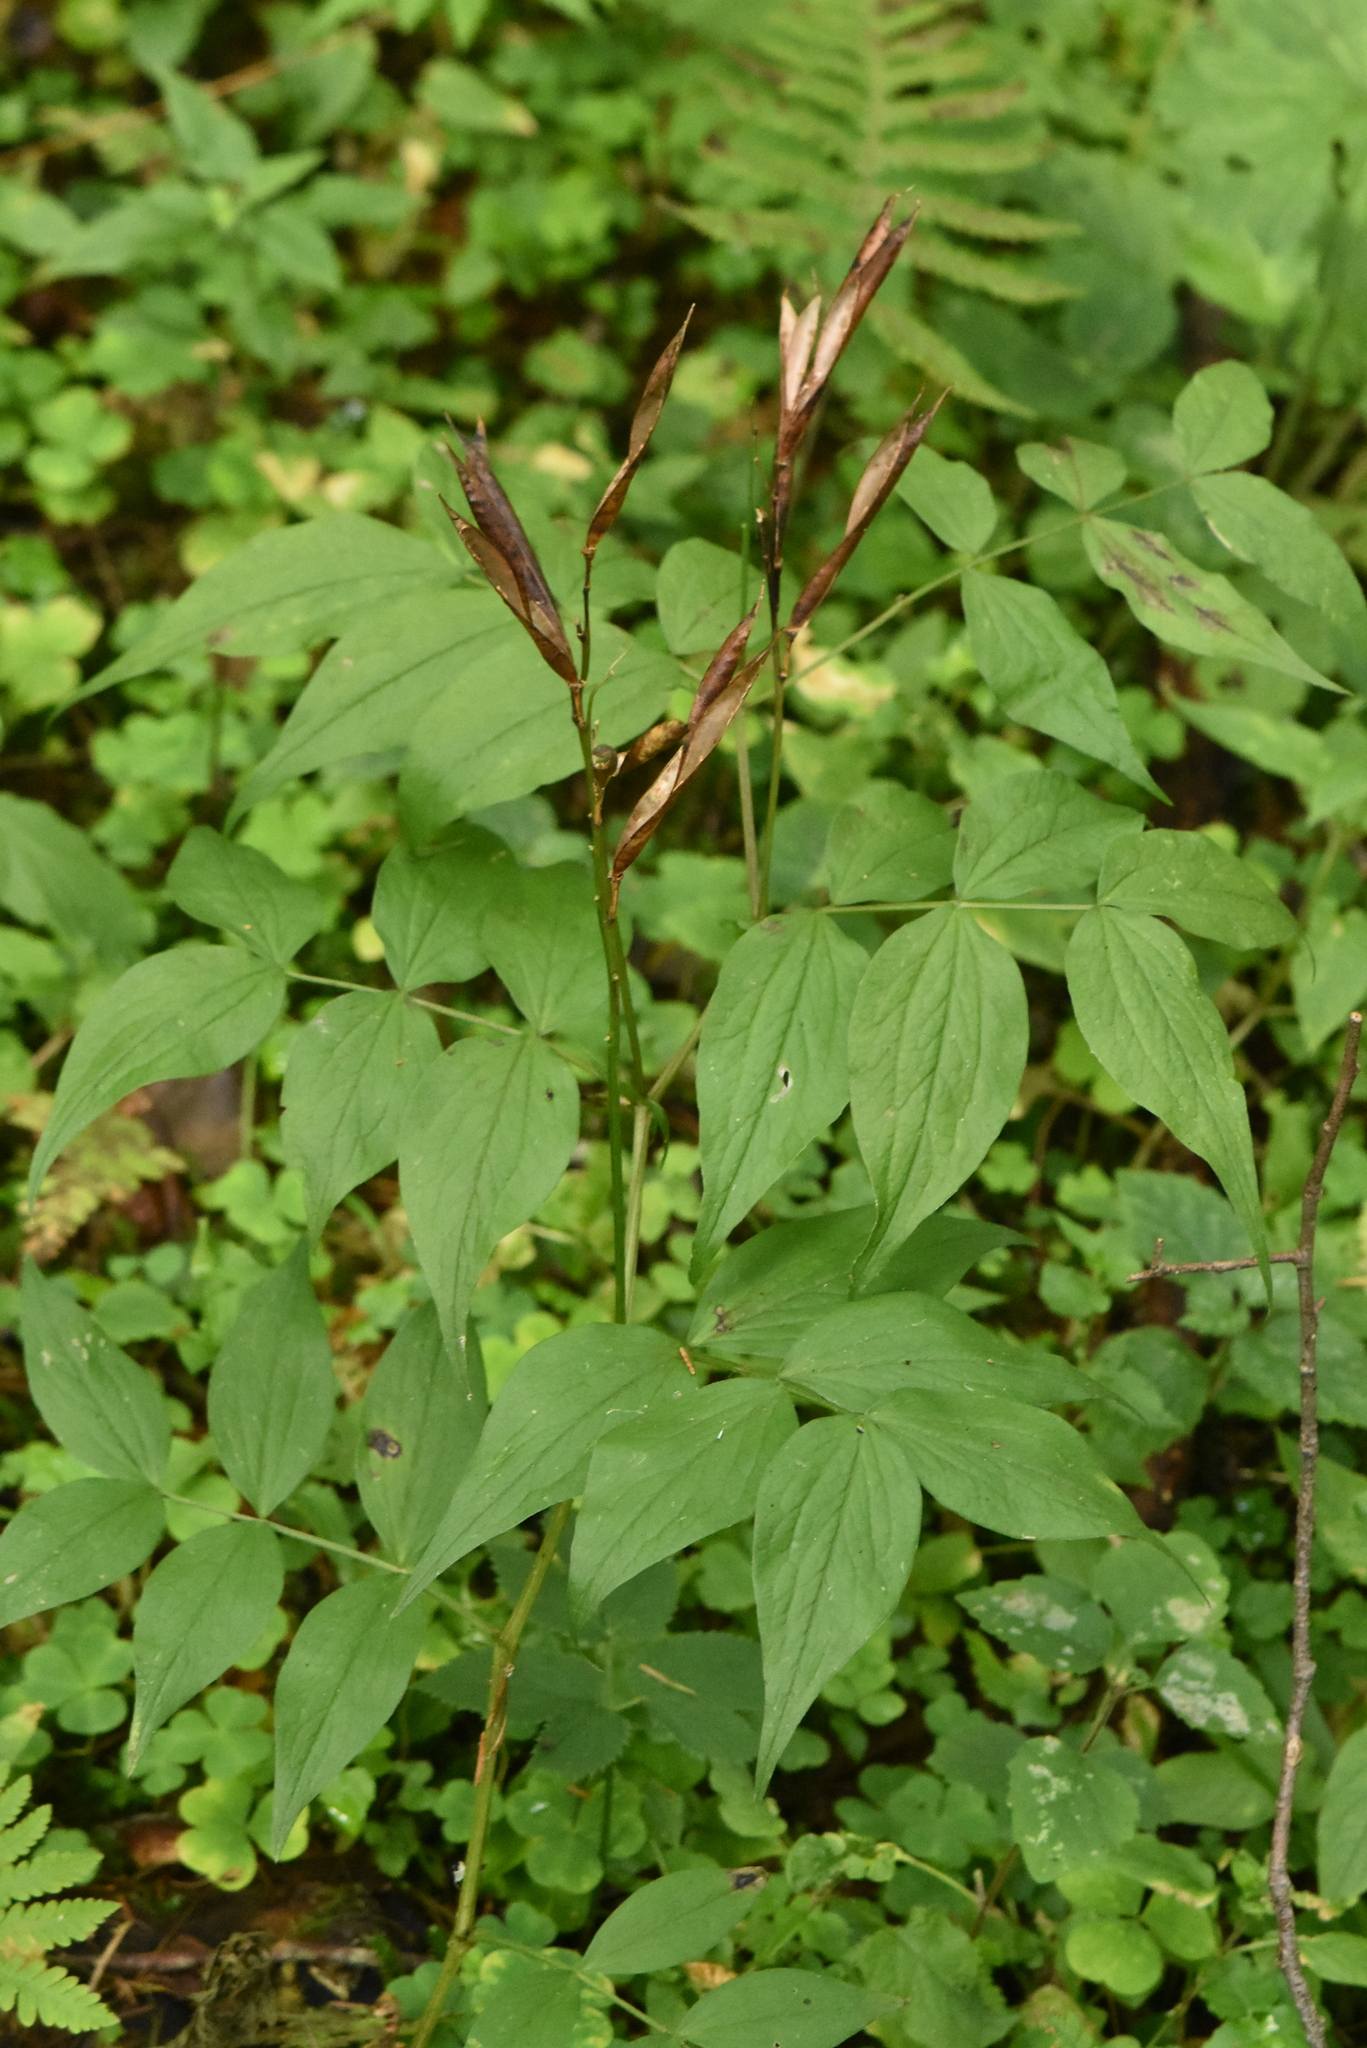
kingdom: Plantae
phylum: Tracheophyta
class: Magnoliopsida
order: Fabales
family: Fabaceae
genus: Lathyrus
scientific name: Lathyrus vernus
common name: Spring pea
